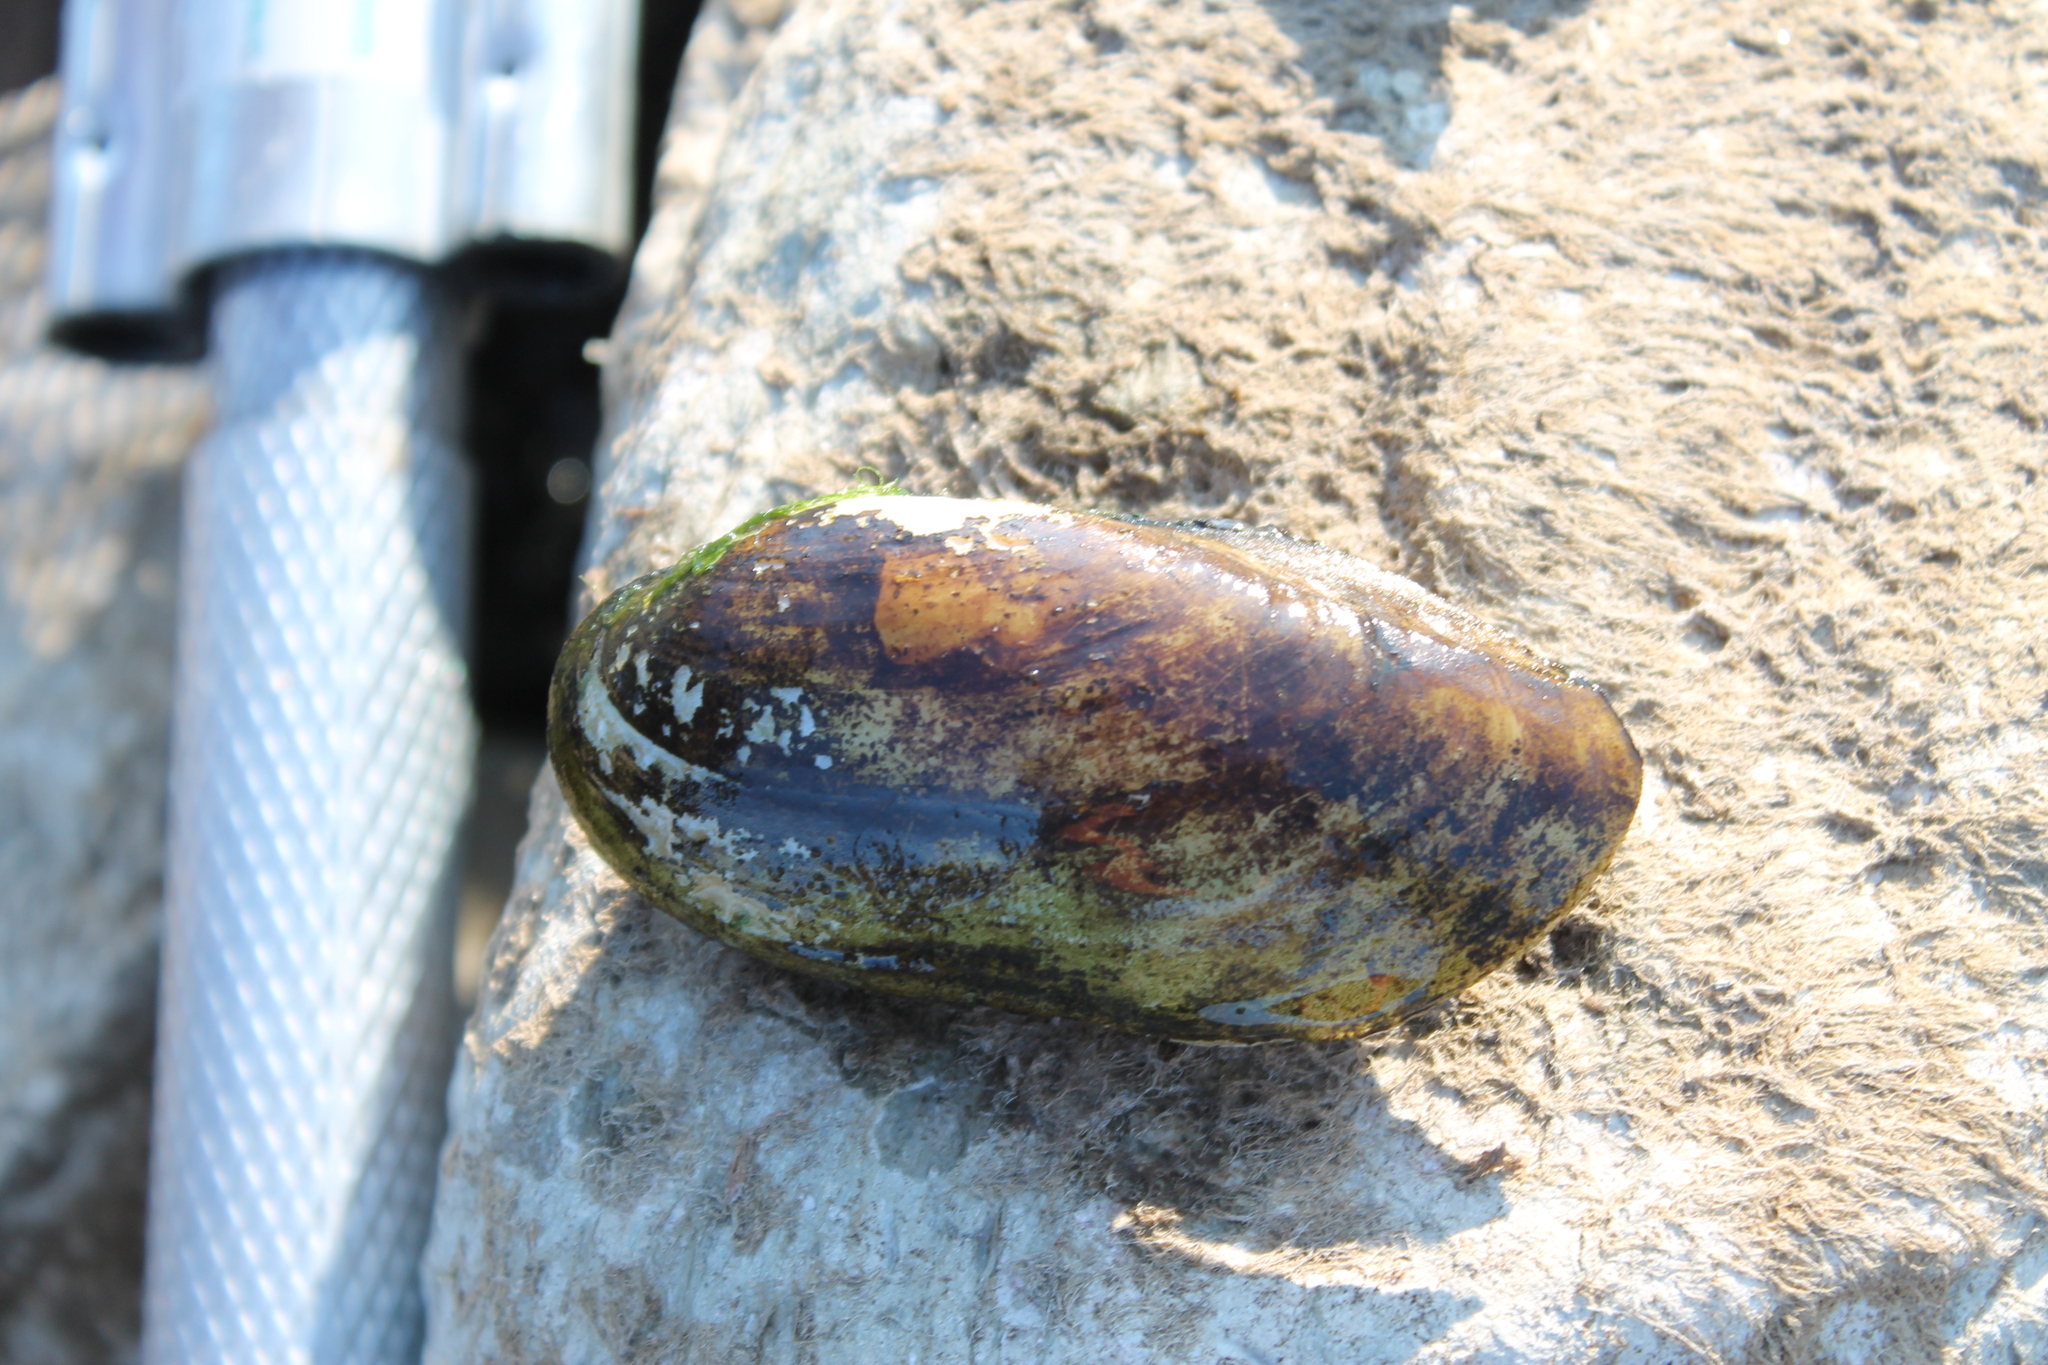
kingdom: Animalia
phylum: Mollusca
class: Bivalvia
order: Unionida
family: Unionidae
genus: Lampsilis
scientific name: Lampsilis teres
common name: Yellow sandshell
